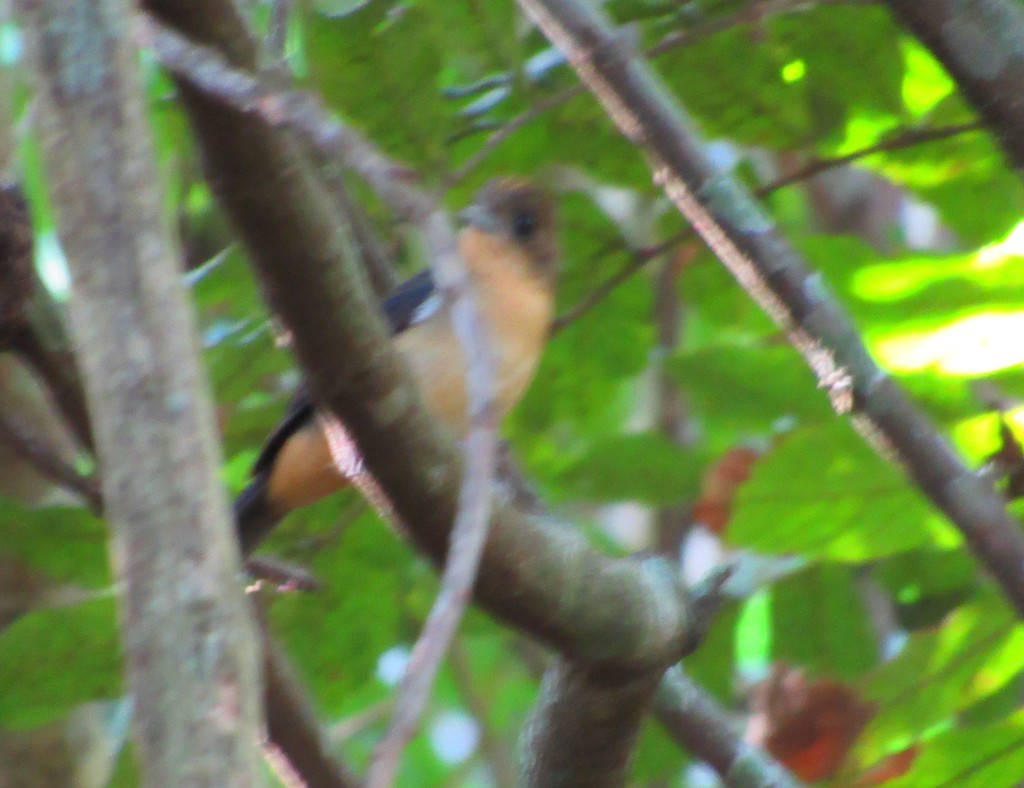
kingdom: Animalia
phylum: Chordata
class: Aves
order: Passeriformes
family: Thraupidae
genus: Trichothraupis
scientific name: Trichothraupis melanops
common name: Black-goggled tanager
